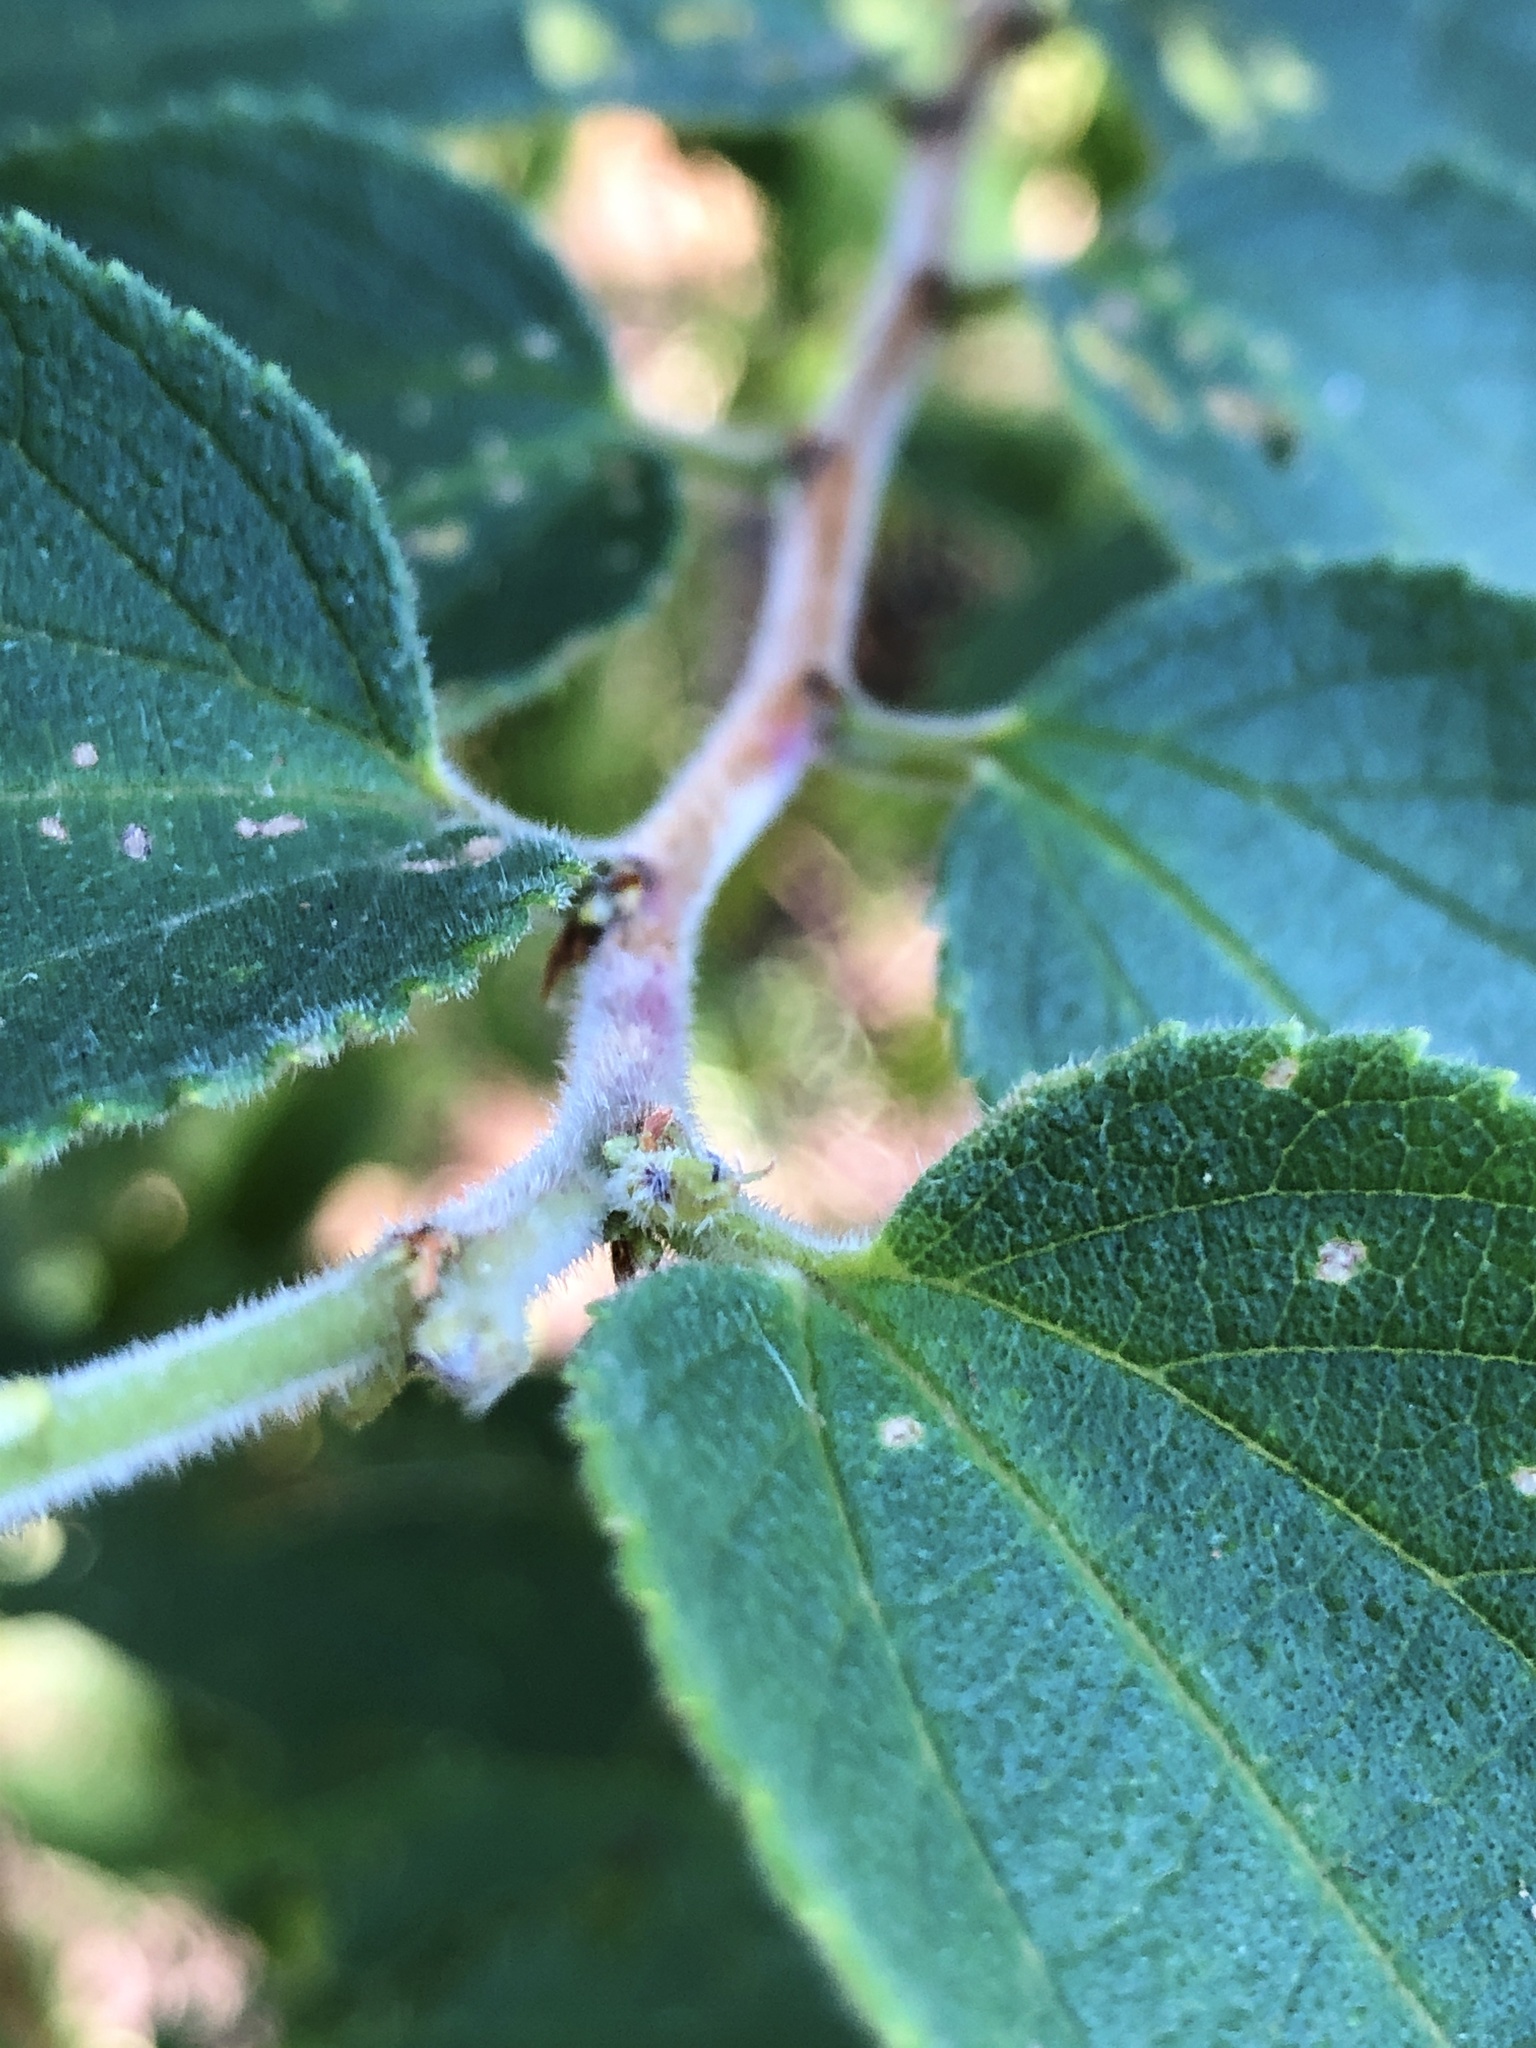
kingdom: Plantae
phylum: Tracheophyta
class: Magnoliopsida
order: Rosales
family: Cannabaceae
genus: Trema
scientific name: Trema tomentosum
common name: Peach-leaf-poisonbush
